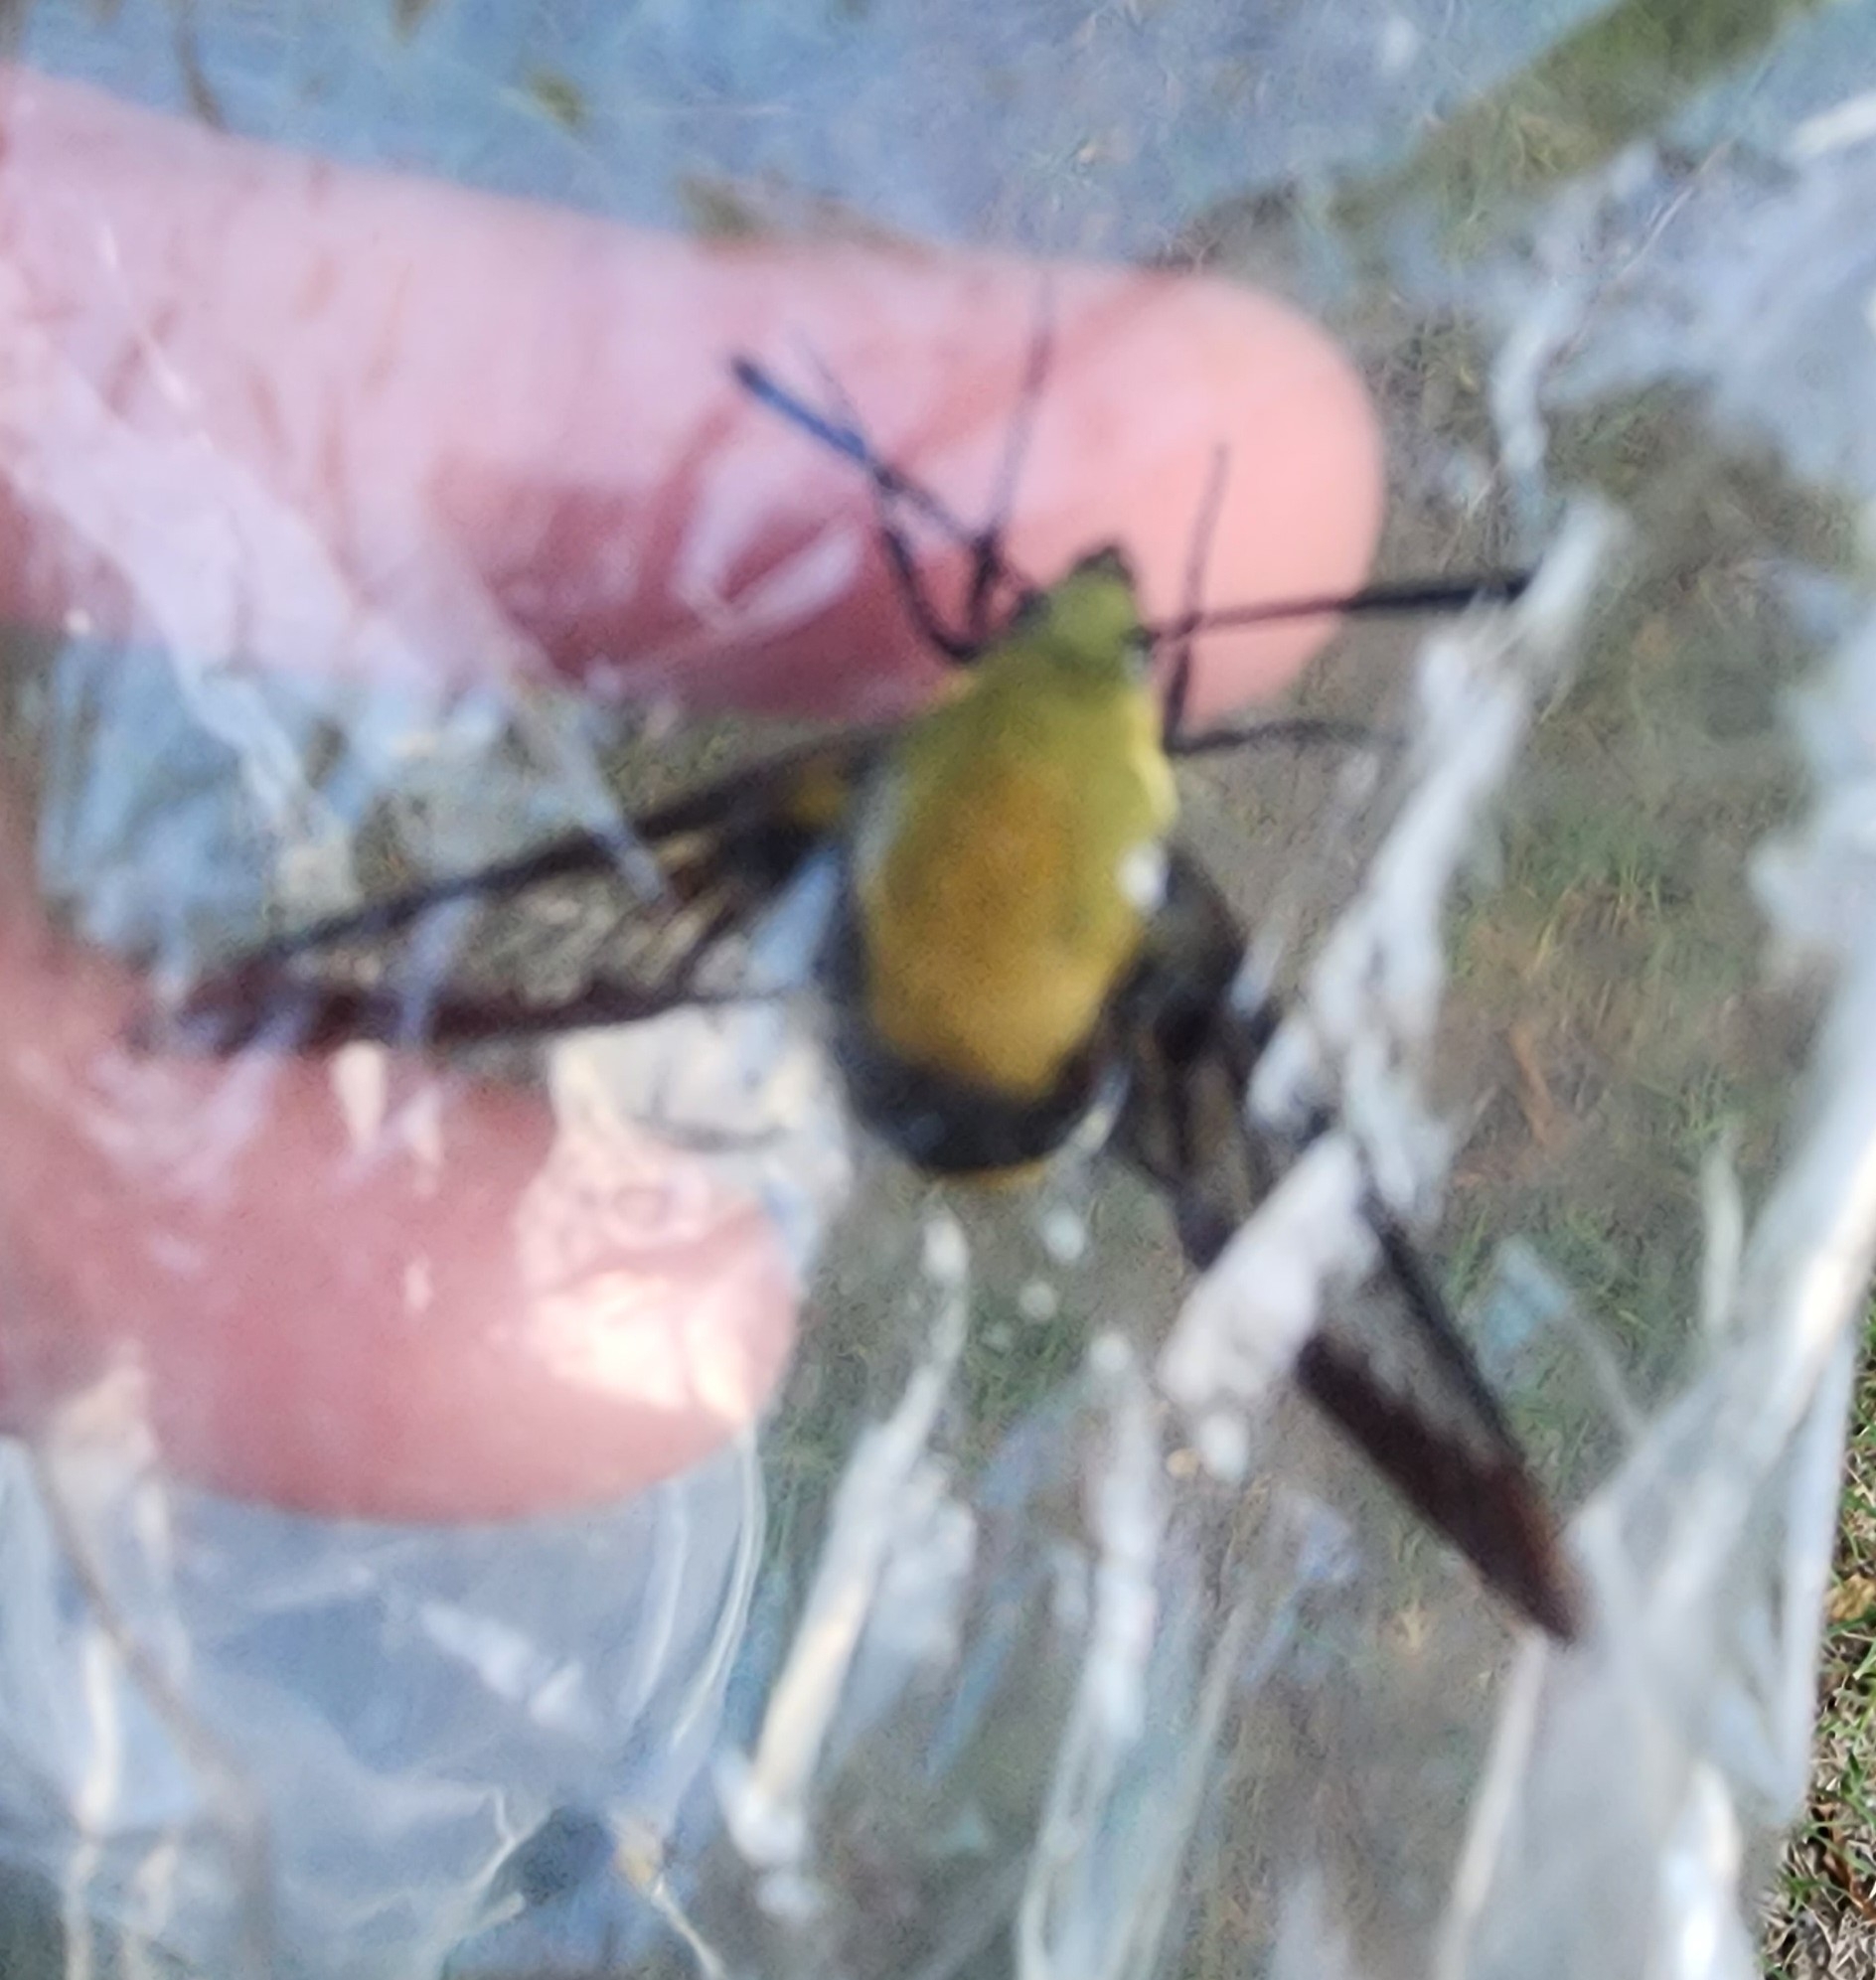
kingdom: Animalia
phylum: Arthropoda
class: Insecta
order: Lepidoptera
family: Sphingidae
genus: Hemaris
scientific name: Hemaris diffinis
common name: Bumblebee moth
